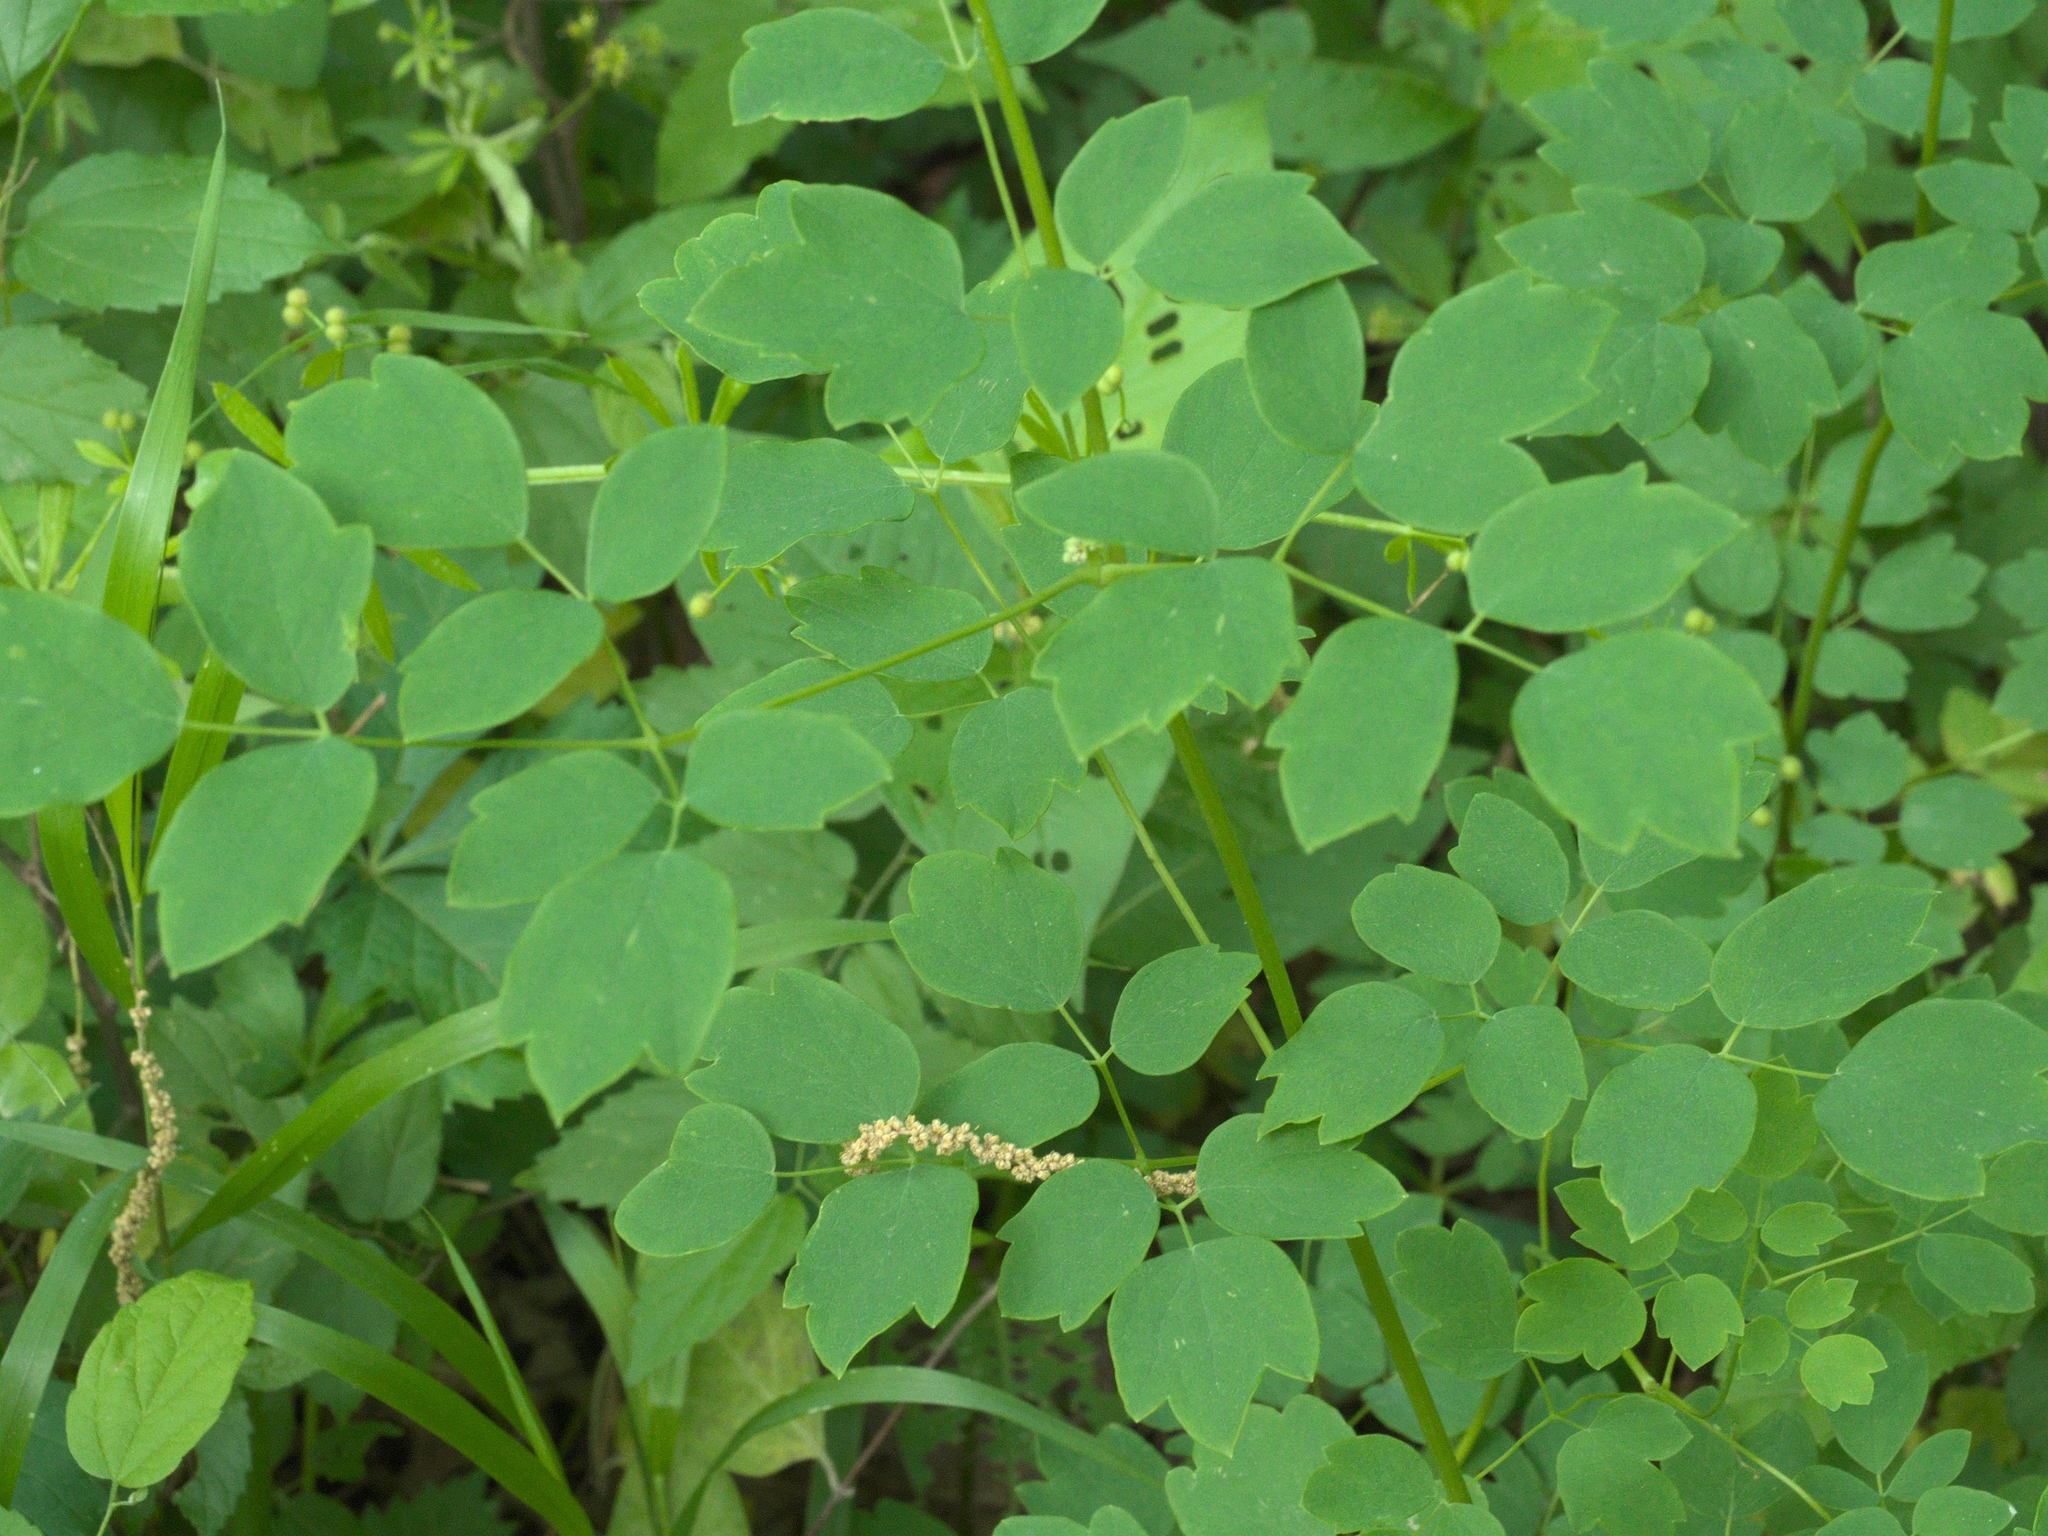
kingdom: Plantae
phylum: Tracheophyta
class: Magnoliopsida
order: Ranunculales
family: Ranunculaceae
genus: Thalictrum
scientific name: Thalictrum dasycarpum
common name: Purple meadow-rue
